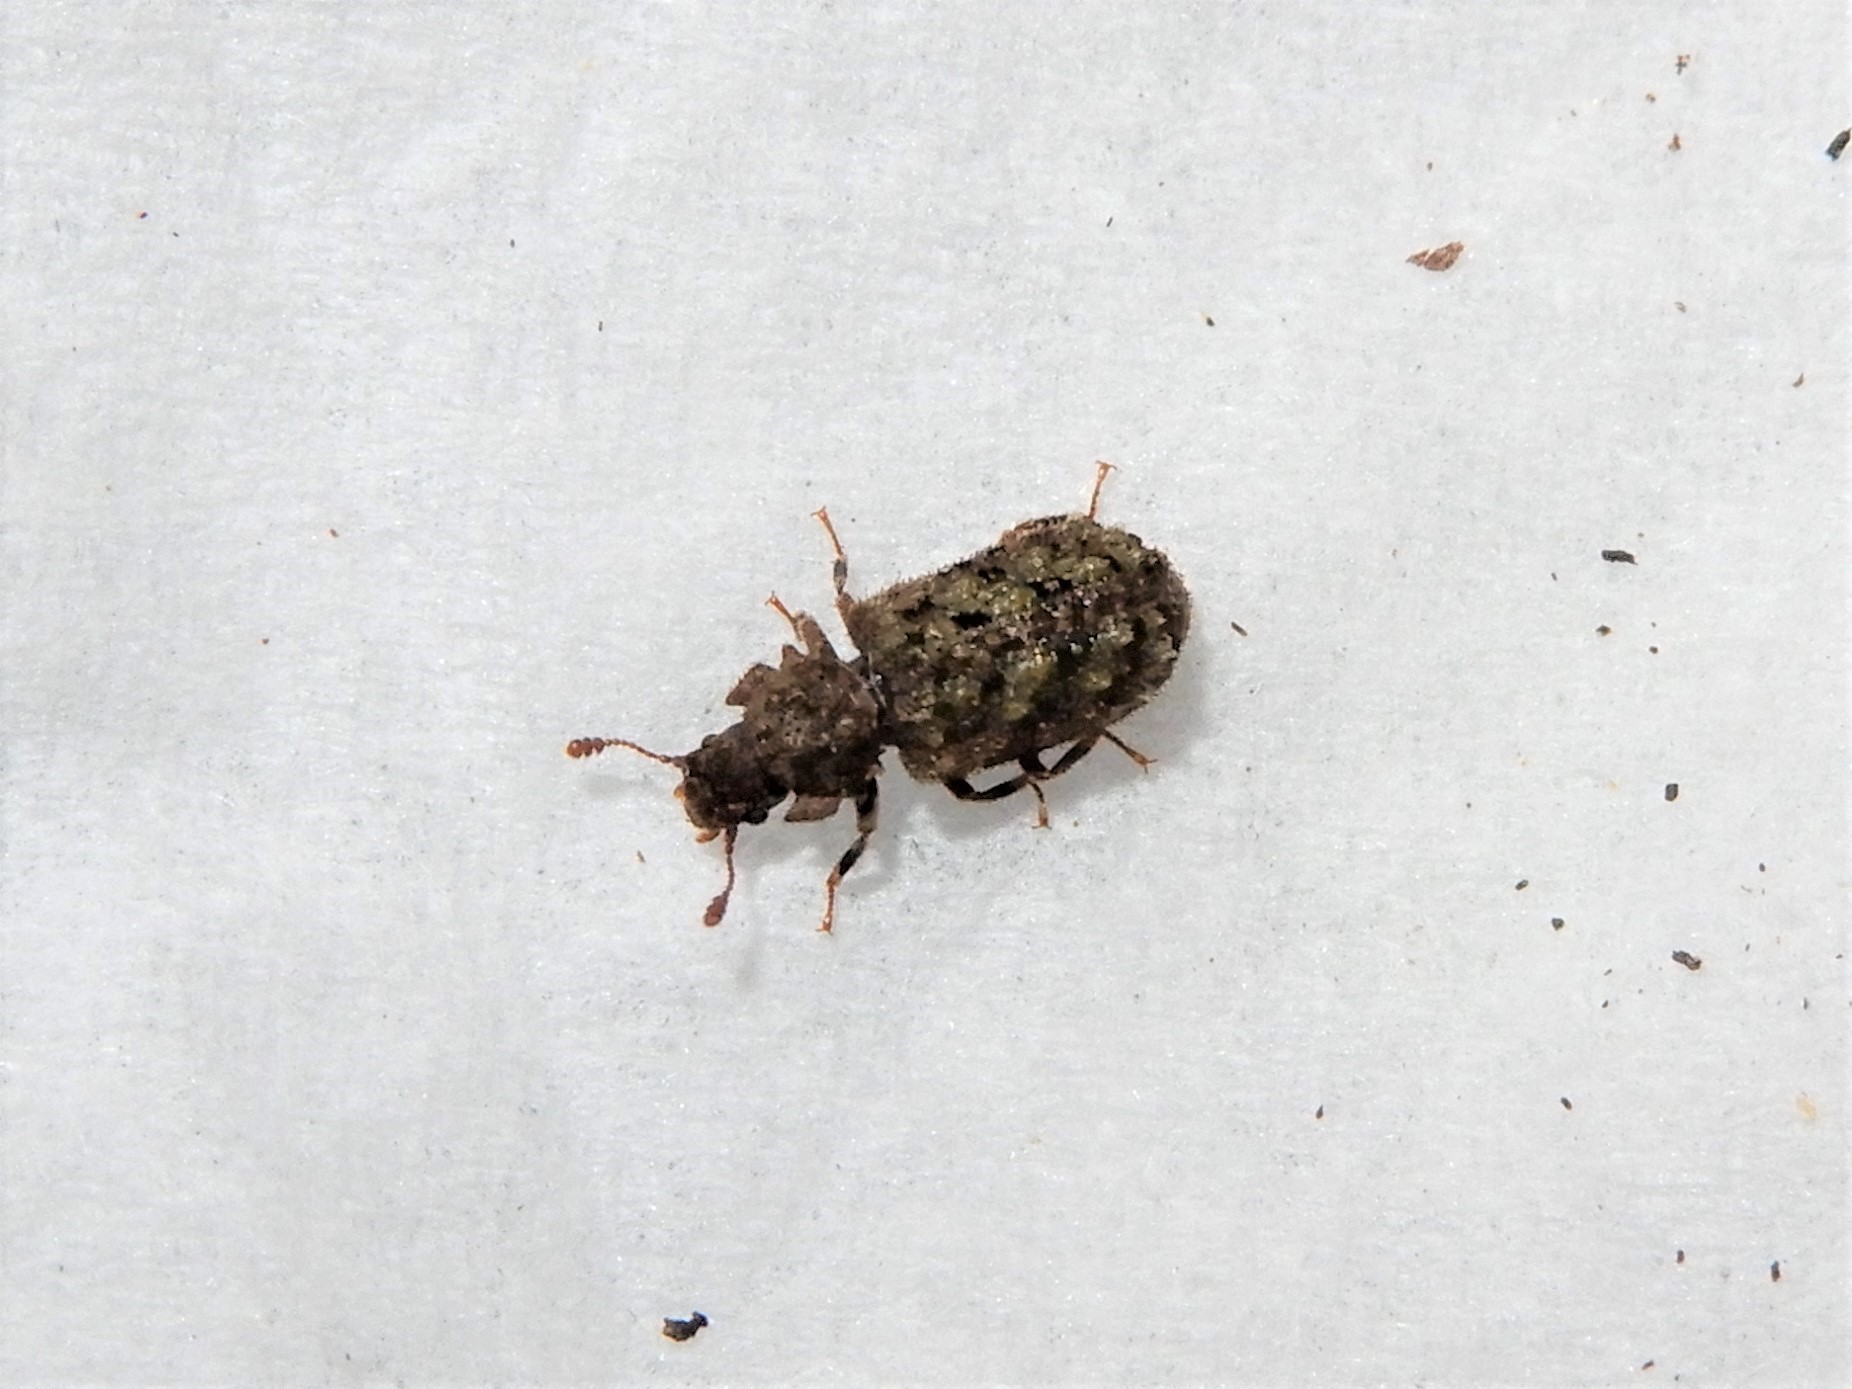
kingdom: Animalia
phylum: Arthropoda
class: Insecta
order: Coleoptera
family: Zopheridae
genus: Pristoderus
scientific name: Pristoderus
